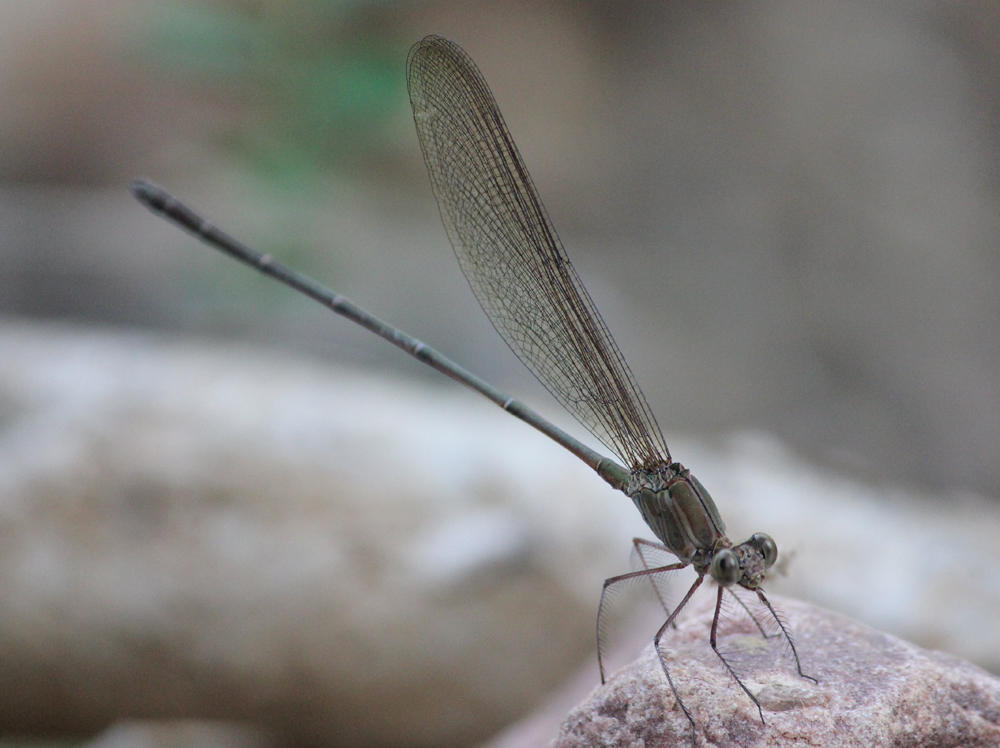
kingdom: Animalia
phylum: Arthropoda
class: Insecta
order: Odonata
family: Calopterygidae
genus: Phaon
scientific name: Phaon iridipennis
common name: Glistening demoiselle
